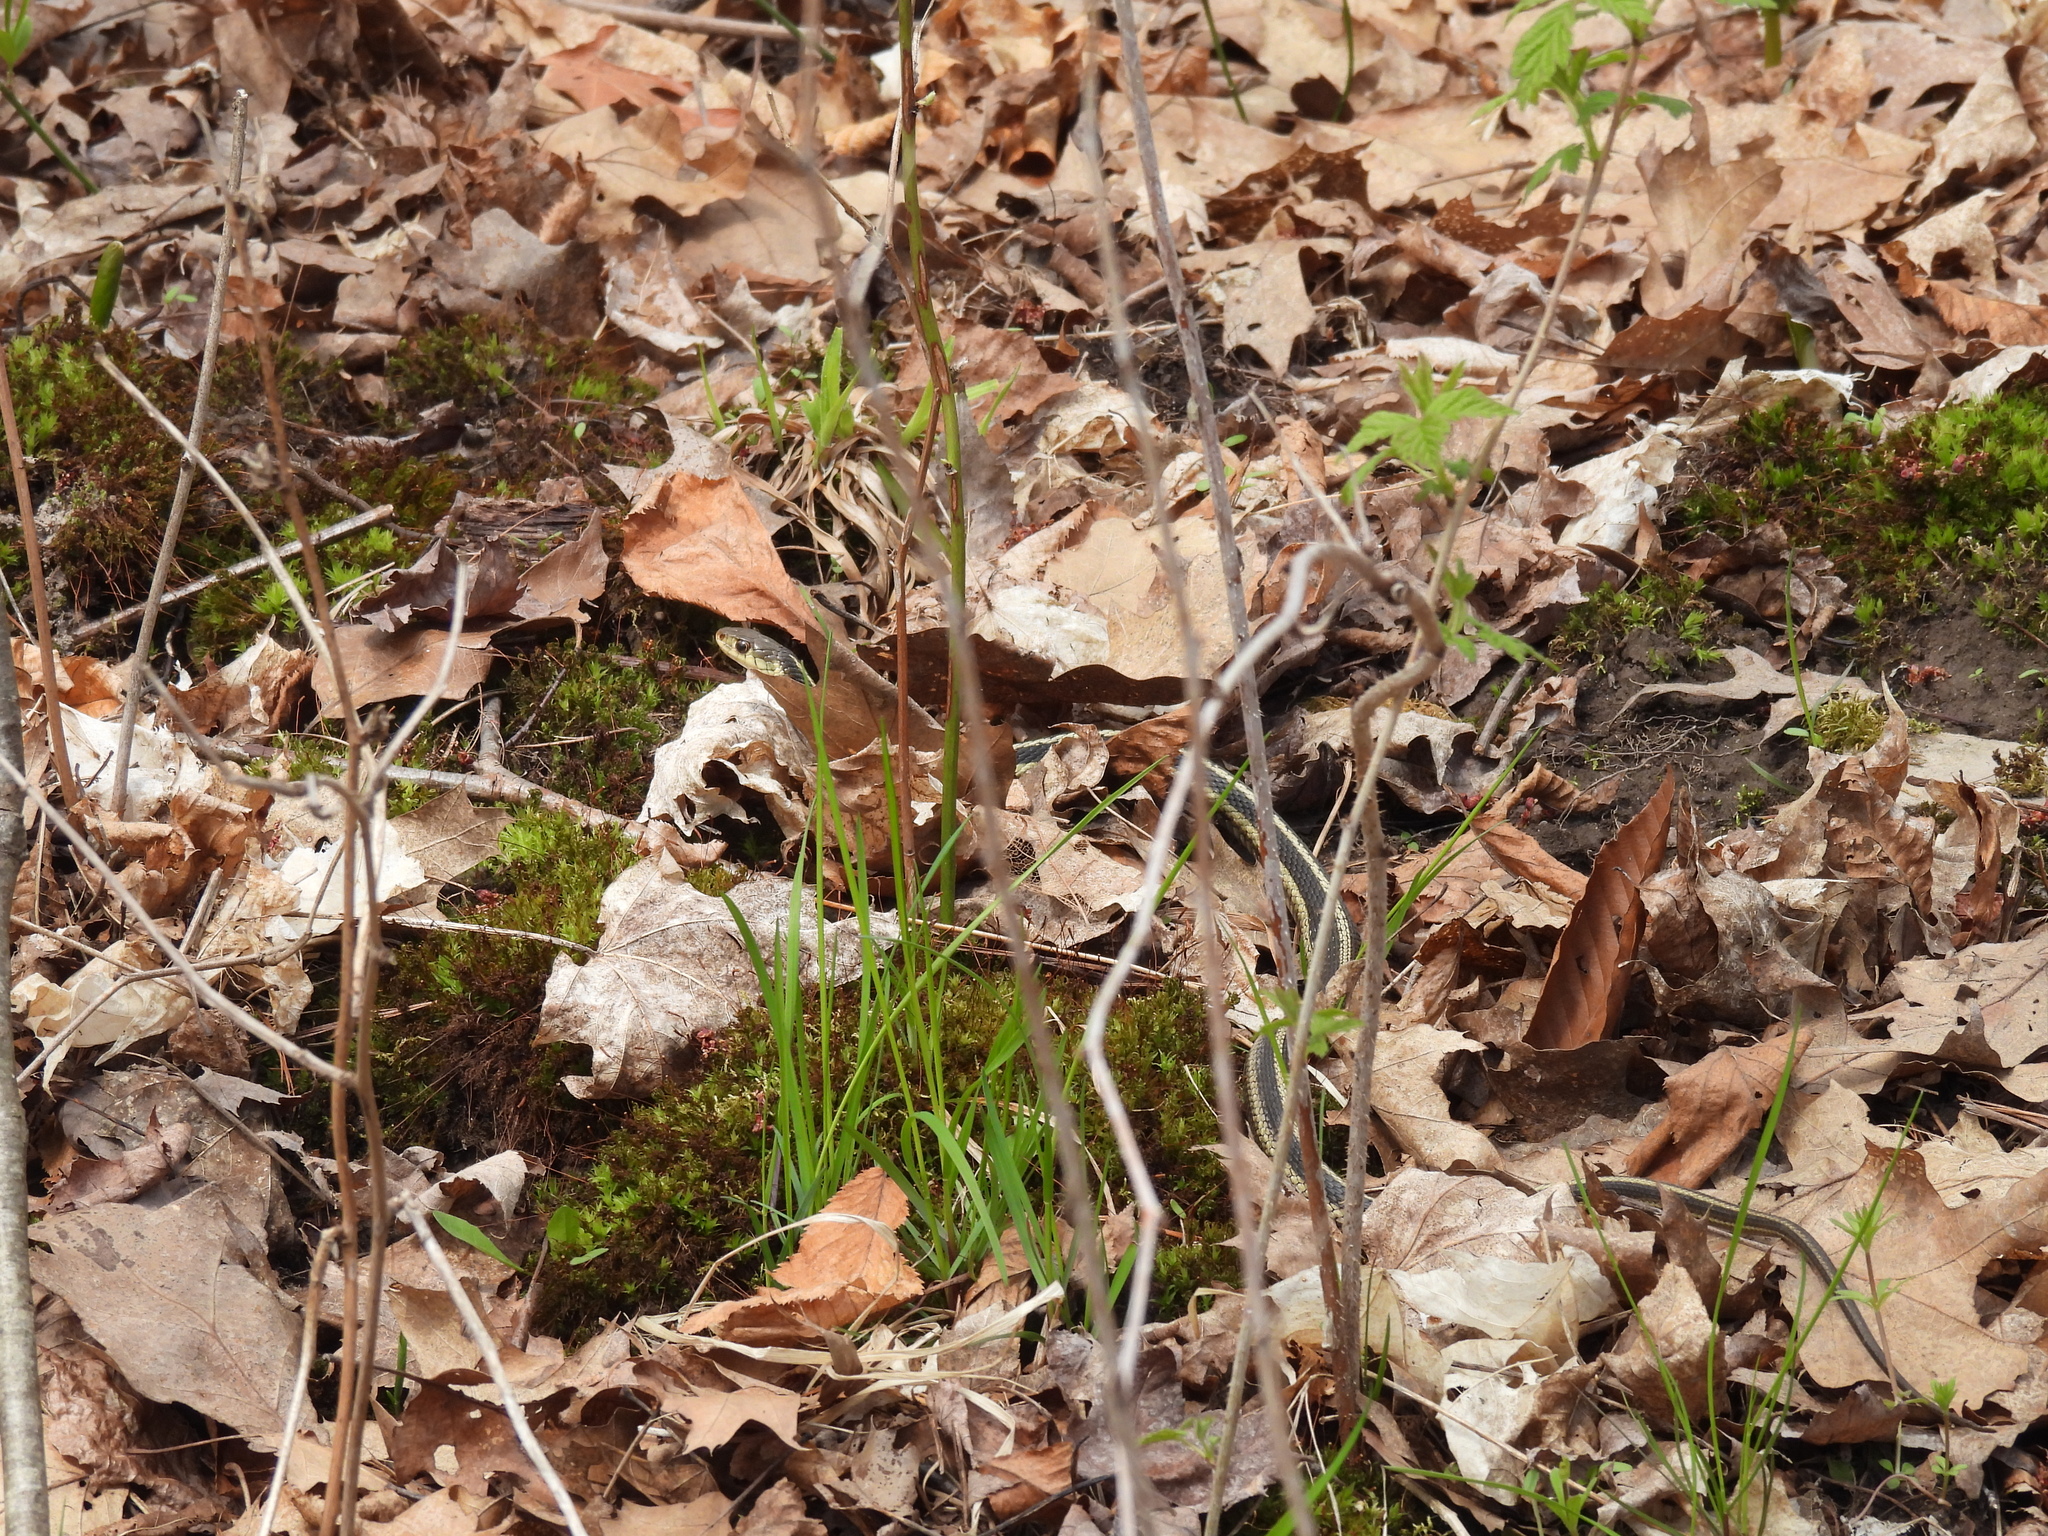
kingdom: Animalia
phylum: Chordata
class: Squamata
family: Colubridae
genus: Thamnophis
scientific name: Thamnophis sirtalis
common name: Common garter snake
